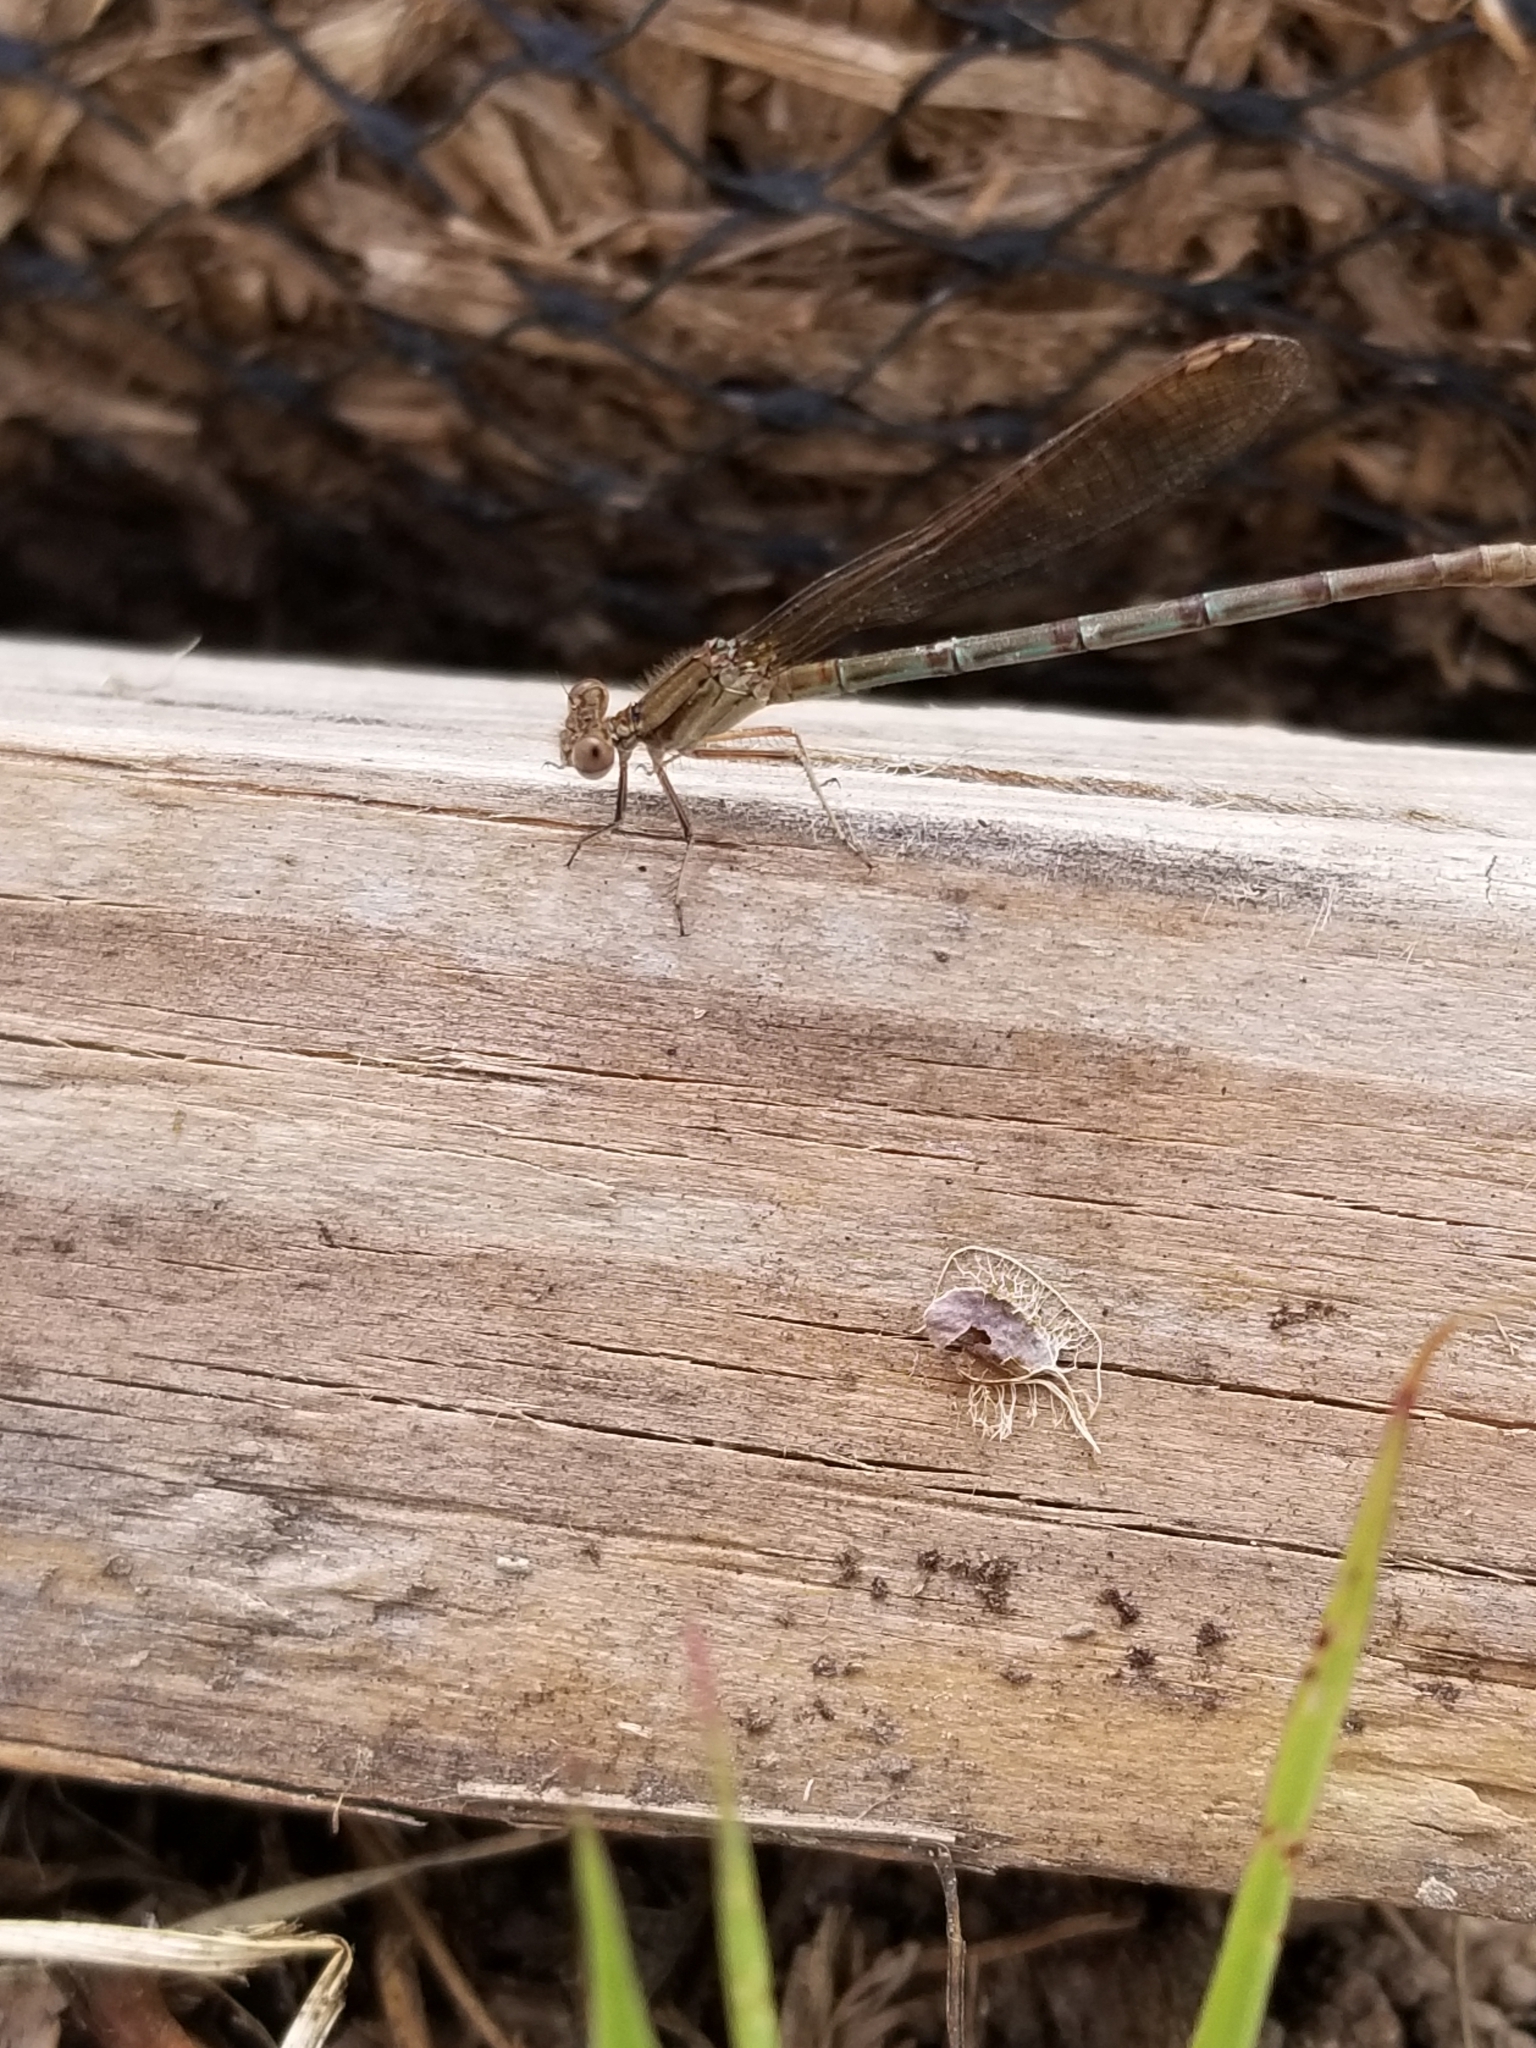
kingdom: Animalia
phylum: Arthropoda
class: Insecta
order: Odonata
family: Coenagrionidae
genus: Argia
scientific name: Argia sedula
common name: Blue-ringed dancer
